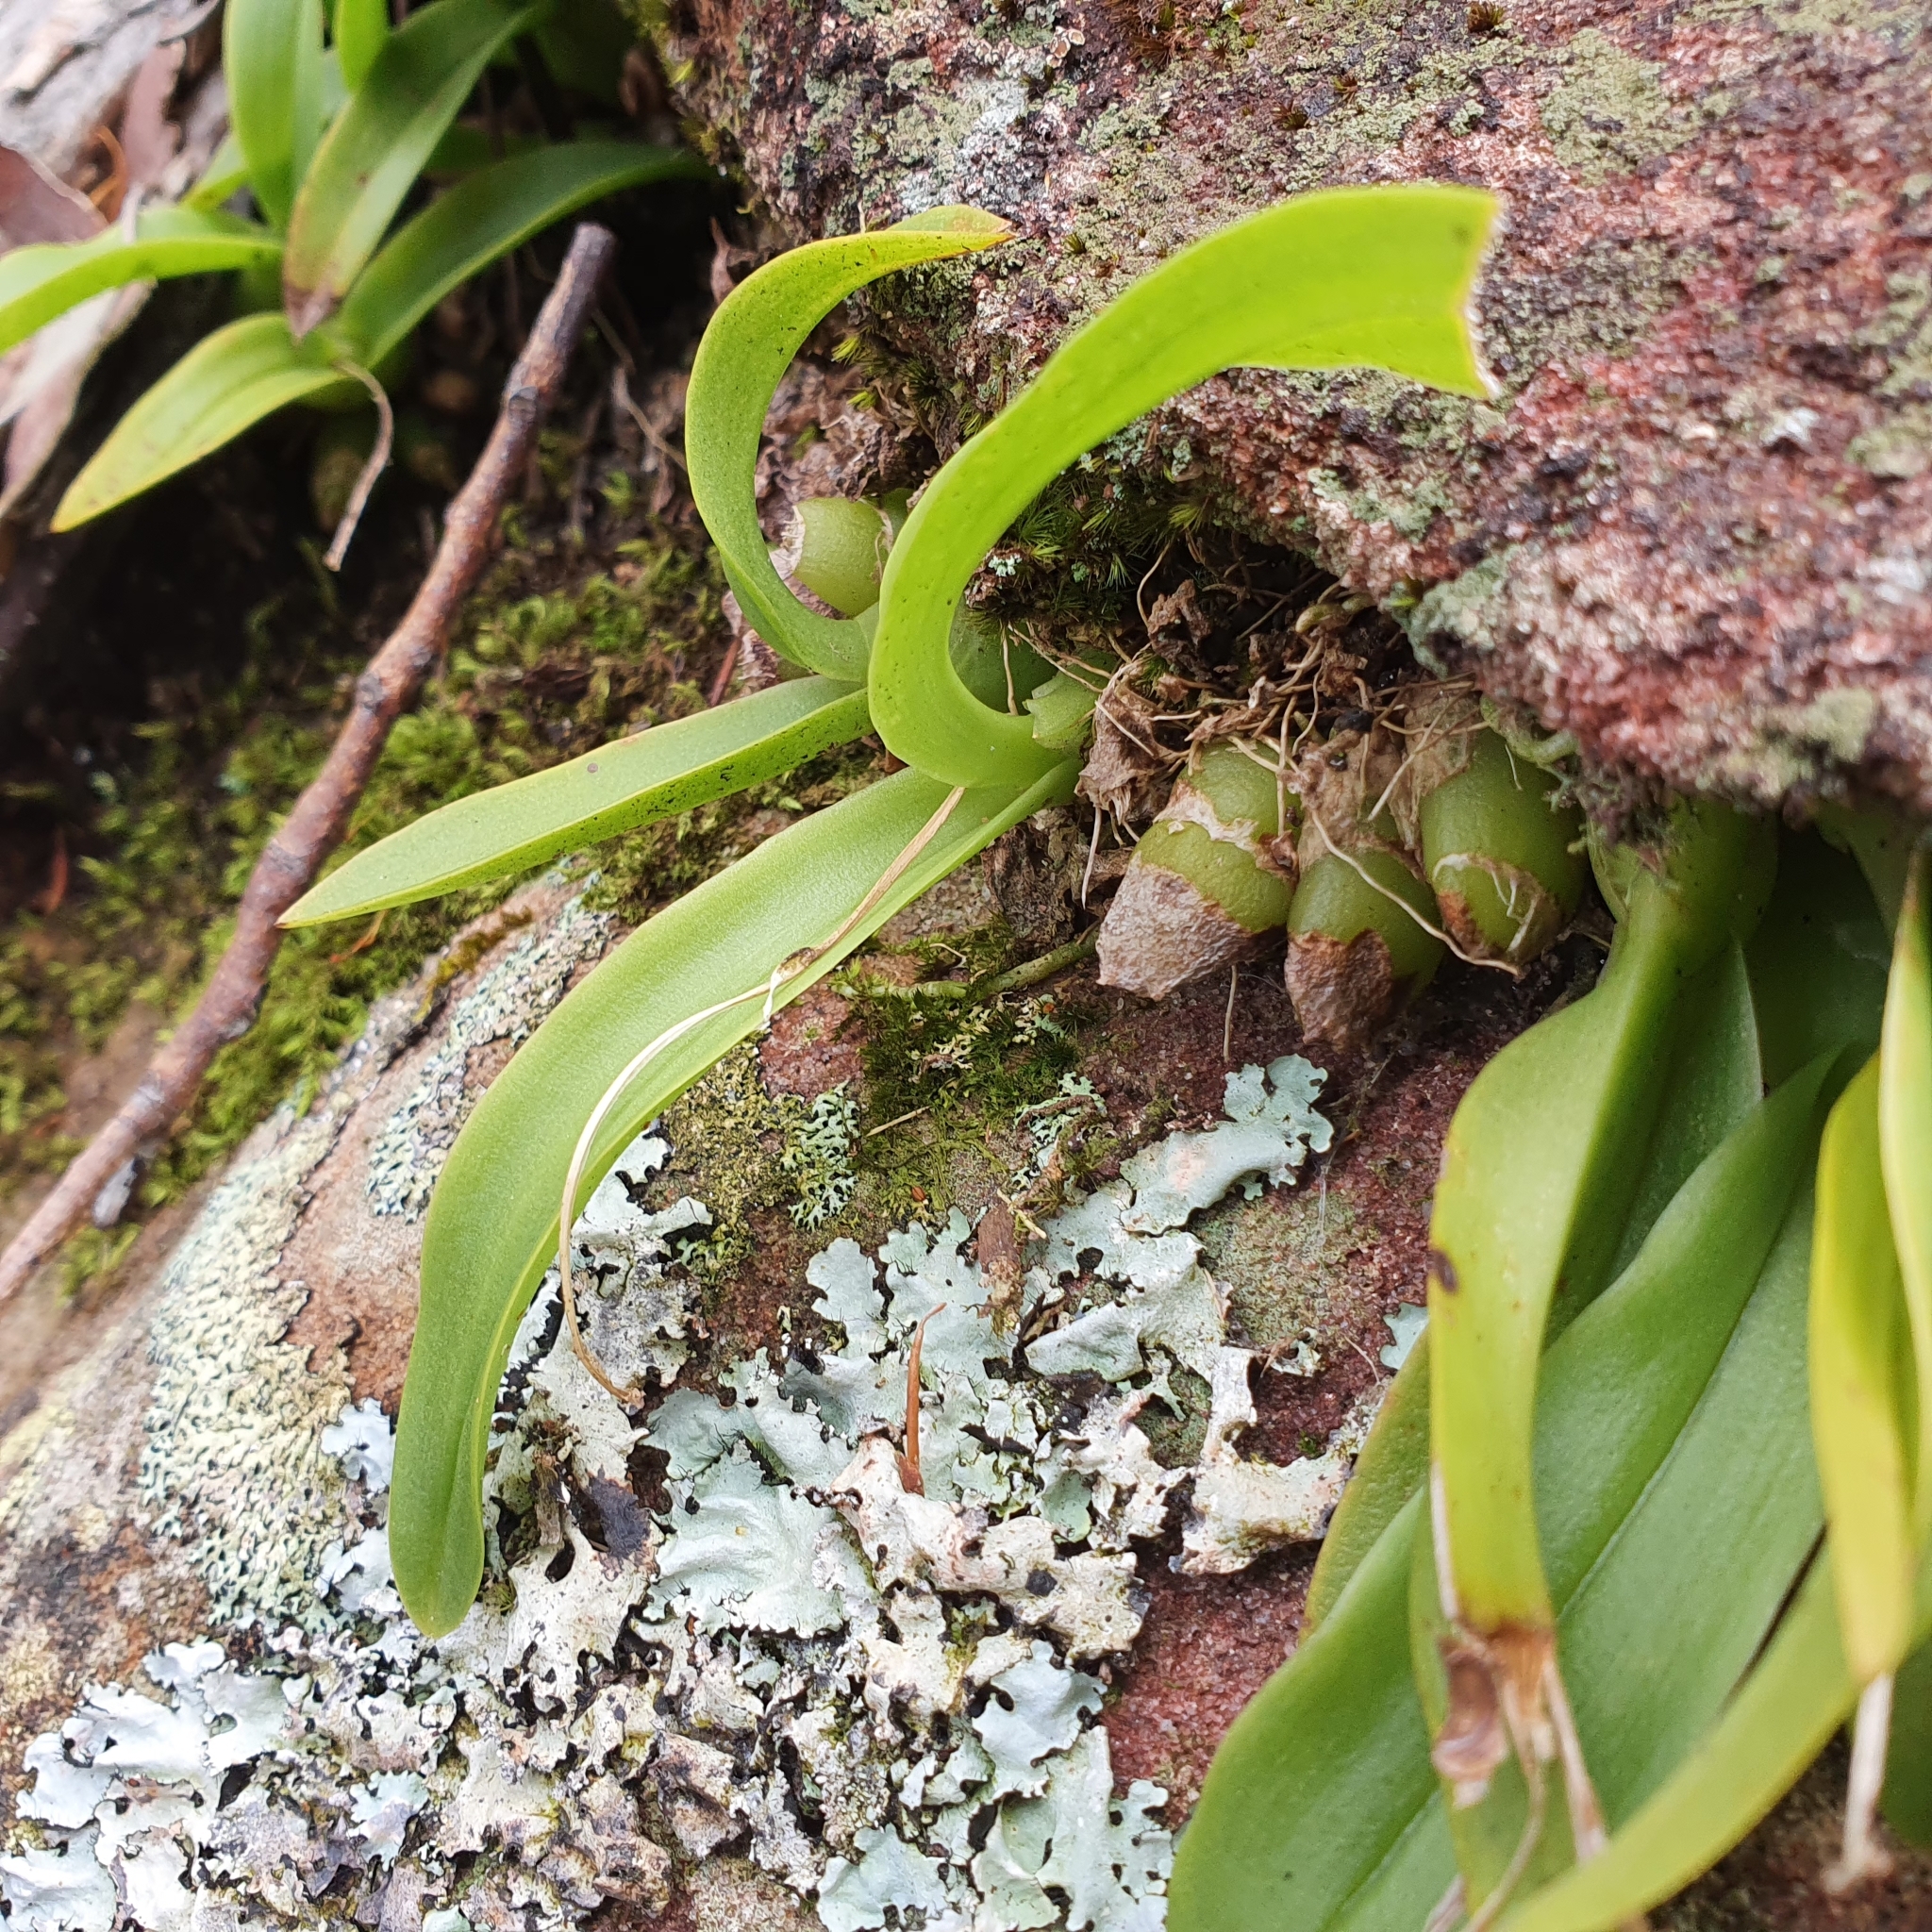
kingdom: Plantae
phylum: Tracheophyta
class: Liliopsida
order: Asparagales
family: Orchidaceae
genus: Liparis
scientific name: Liparis reflexa
